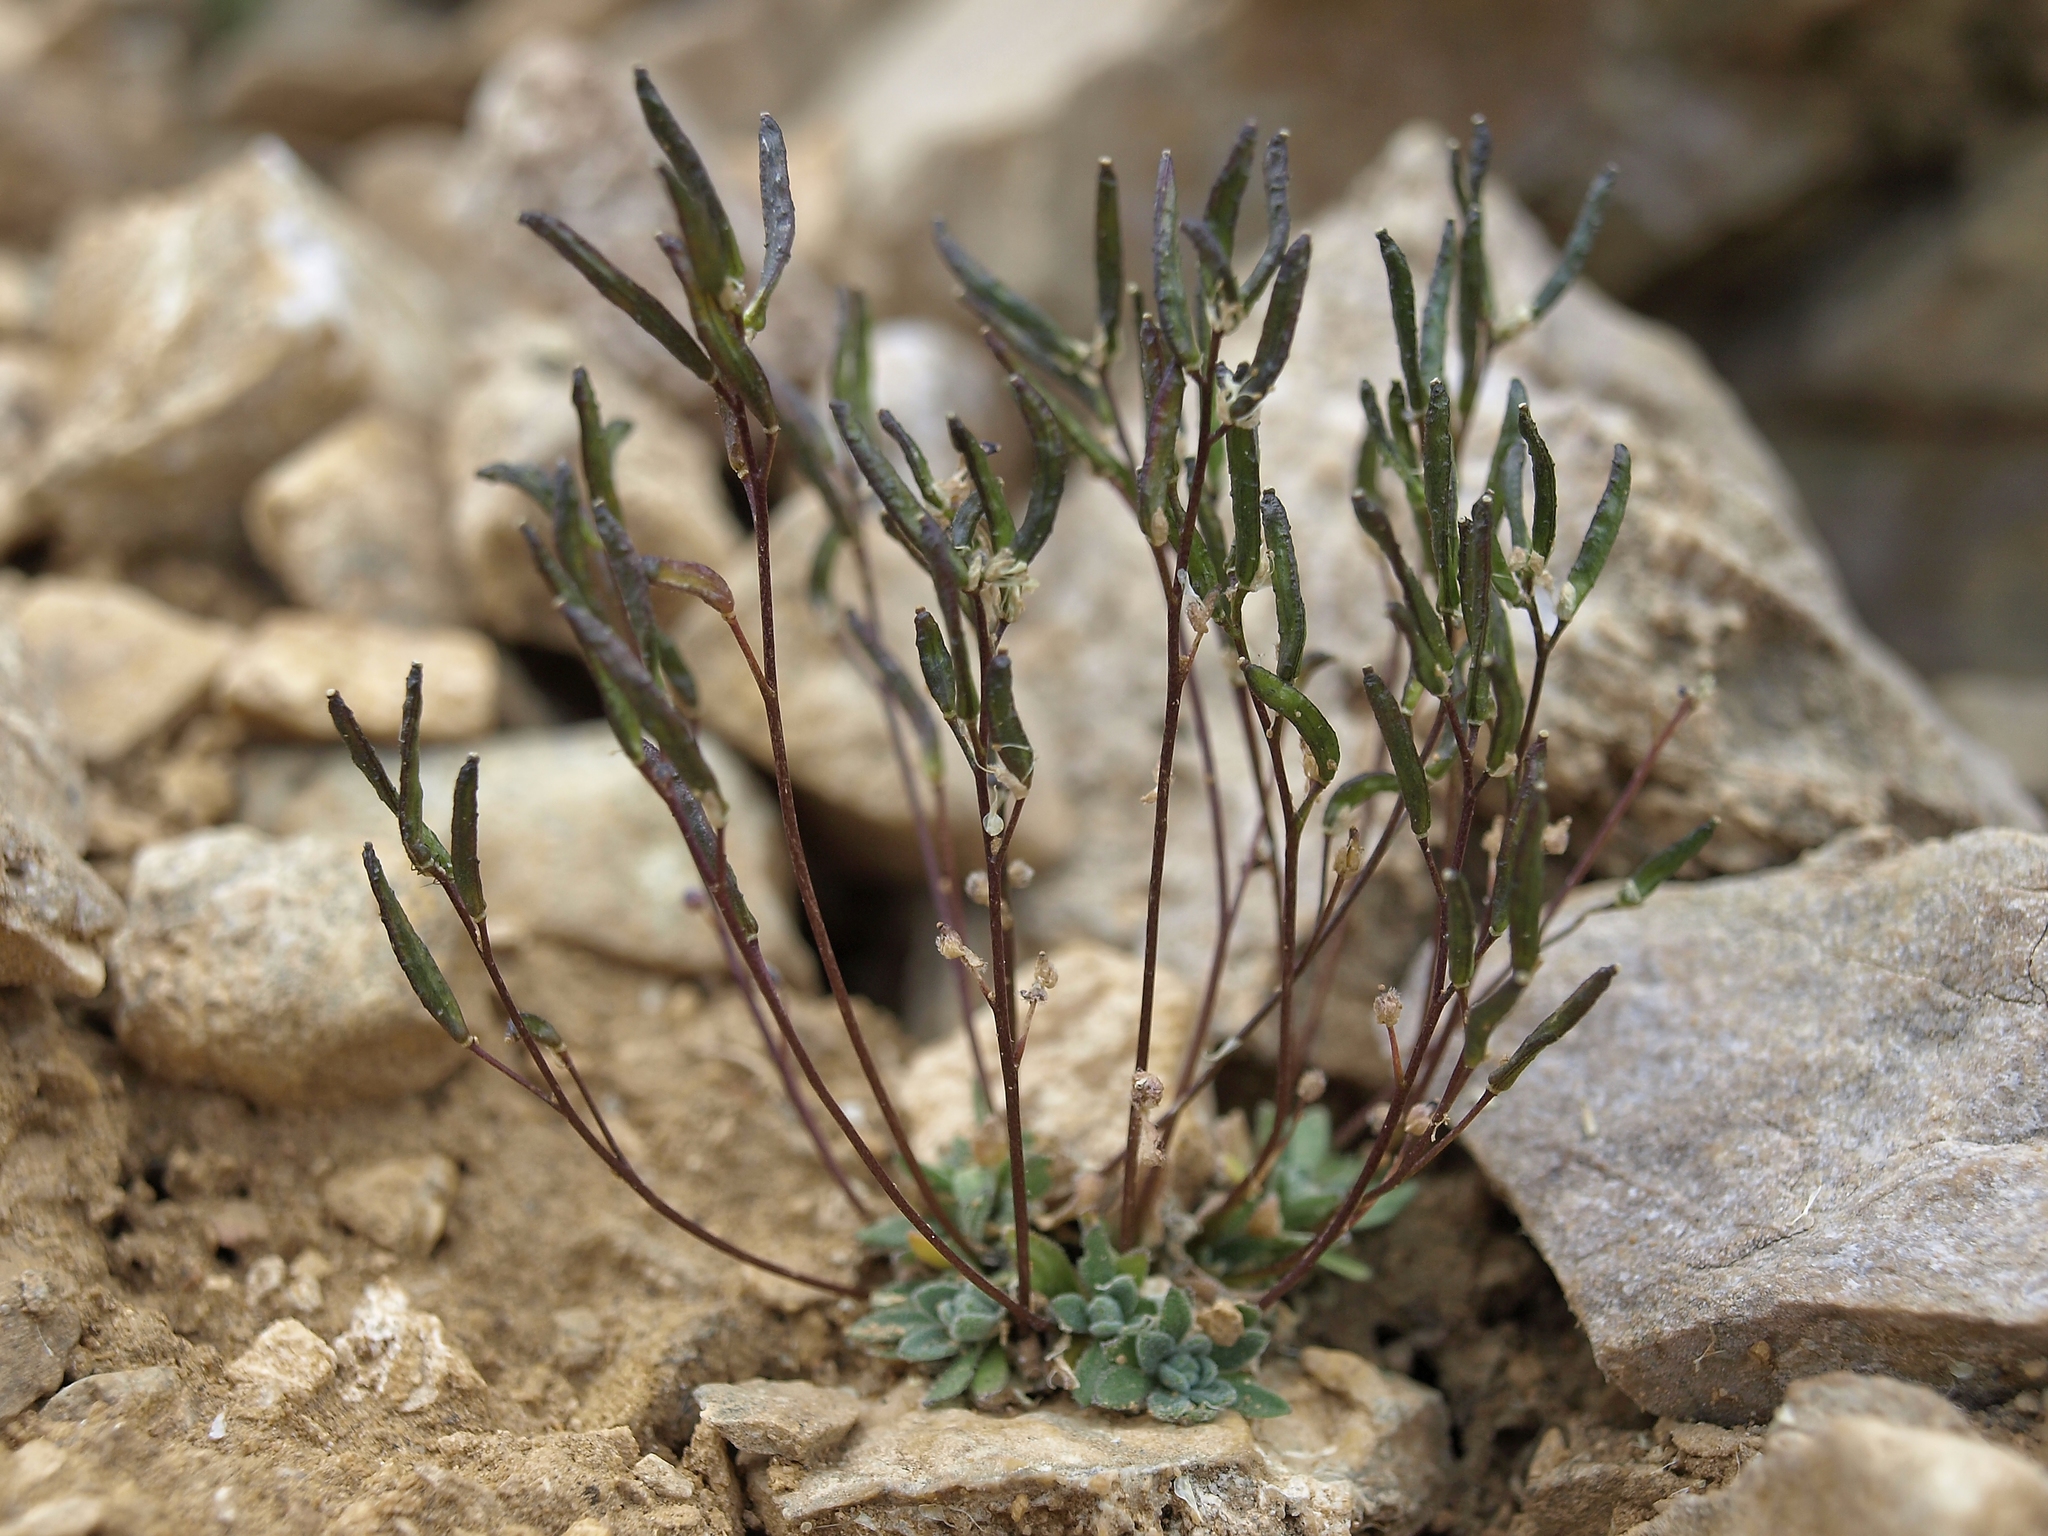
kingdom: Plantae
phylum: Tracheophyta
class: Magnoliopsida
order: Brassicales
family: Brassicaceae
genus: Draba
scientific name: Draba lonchocarpa
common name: Lance-fruit draba
